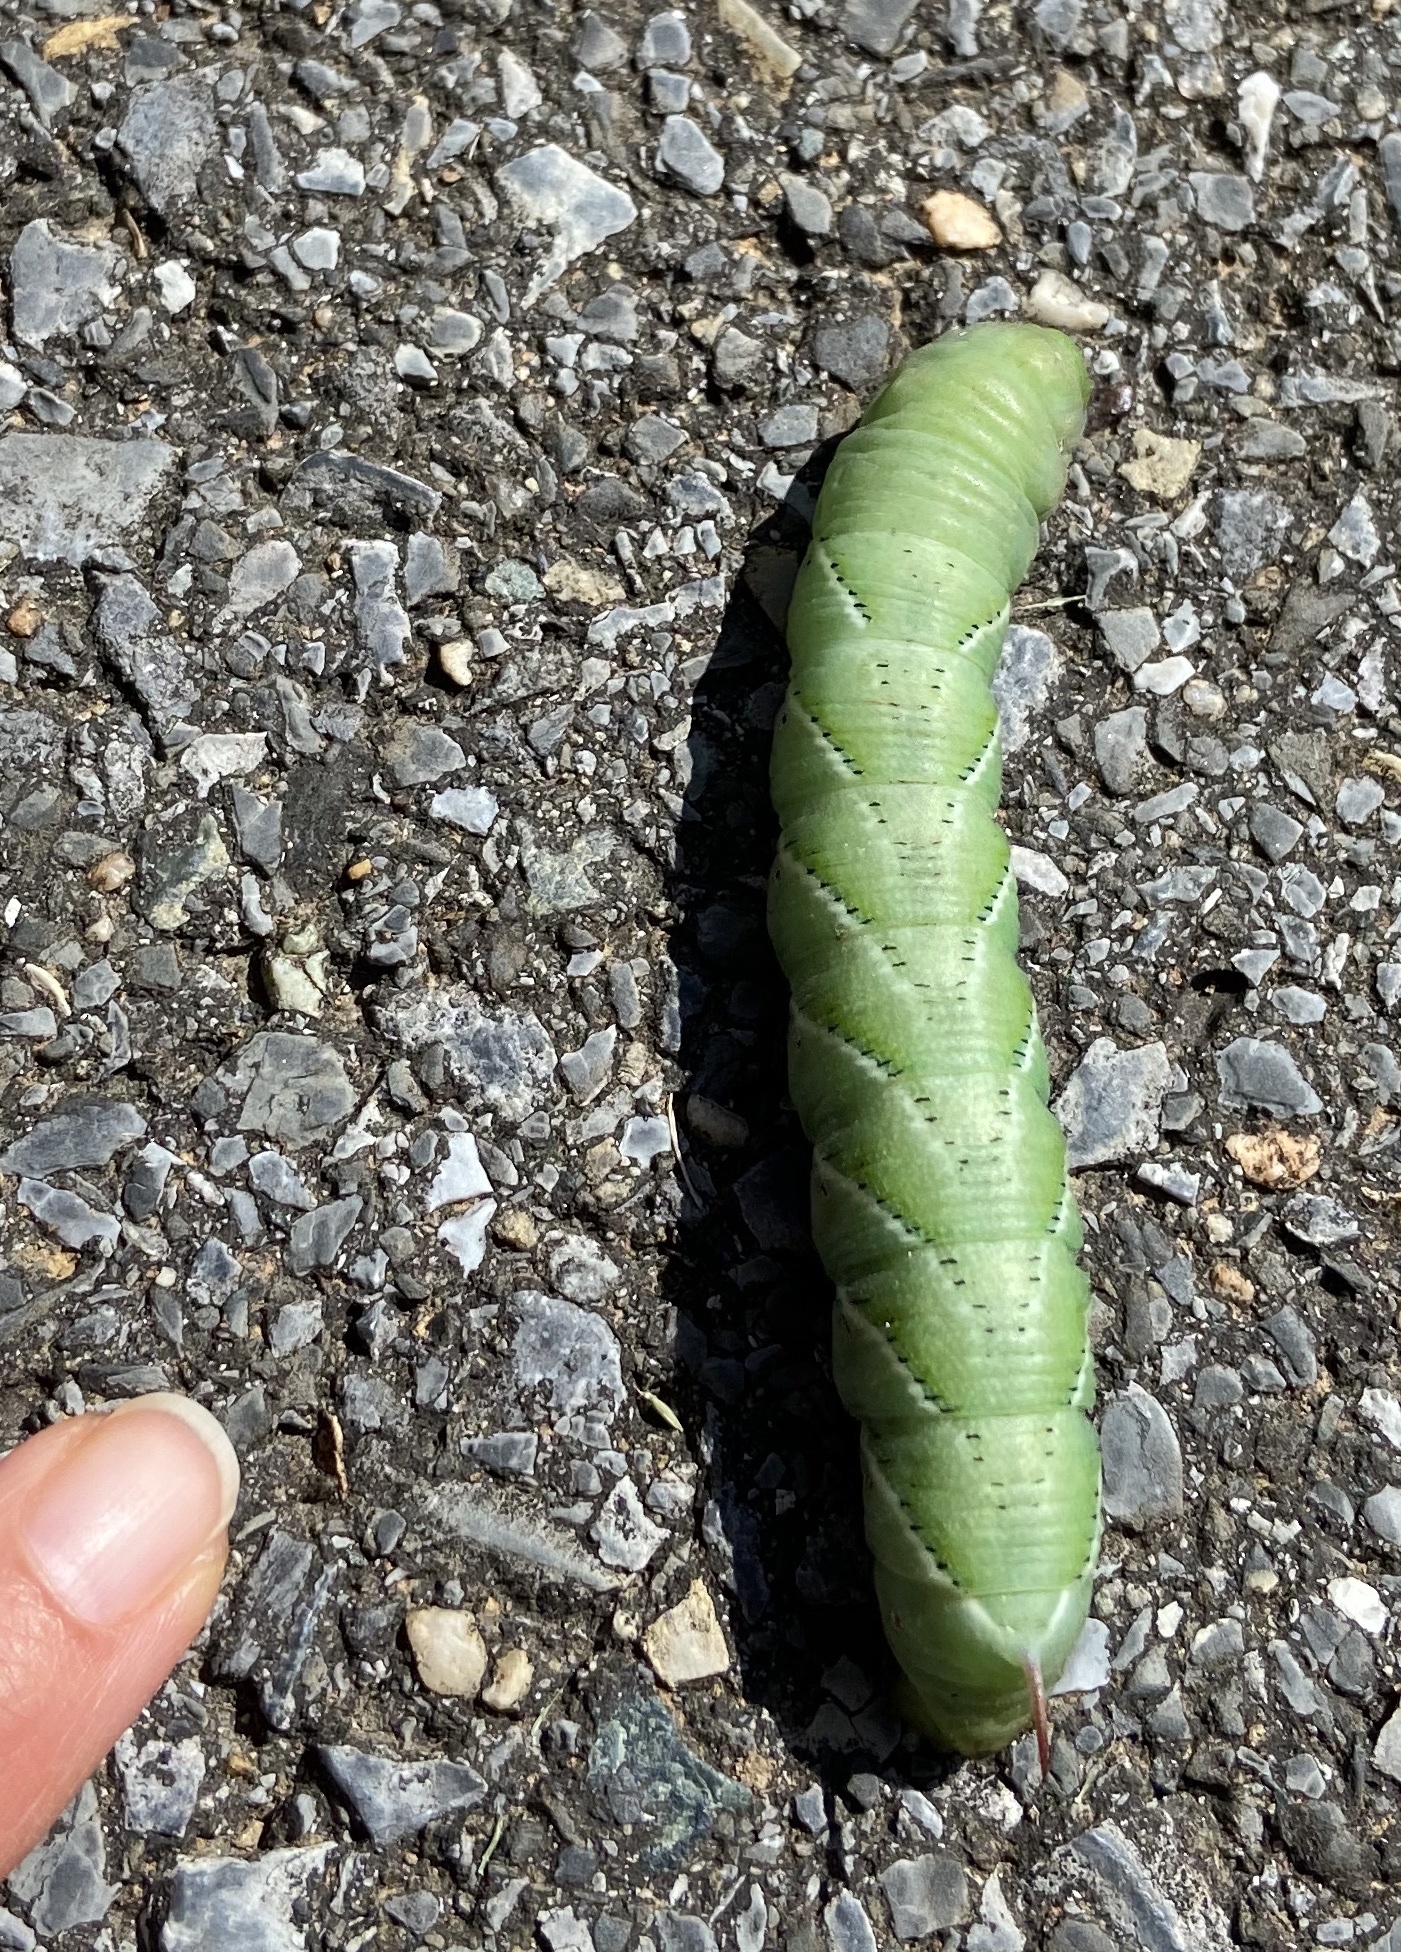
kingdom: Animalia
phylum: Arthropoda
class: Insecta
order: Lepidoptera
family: Sphingidae
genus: Manduca
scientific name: Manduca sexta
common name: Carolina sphinx
